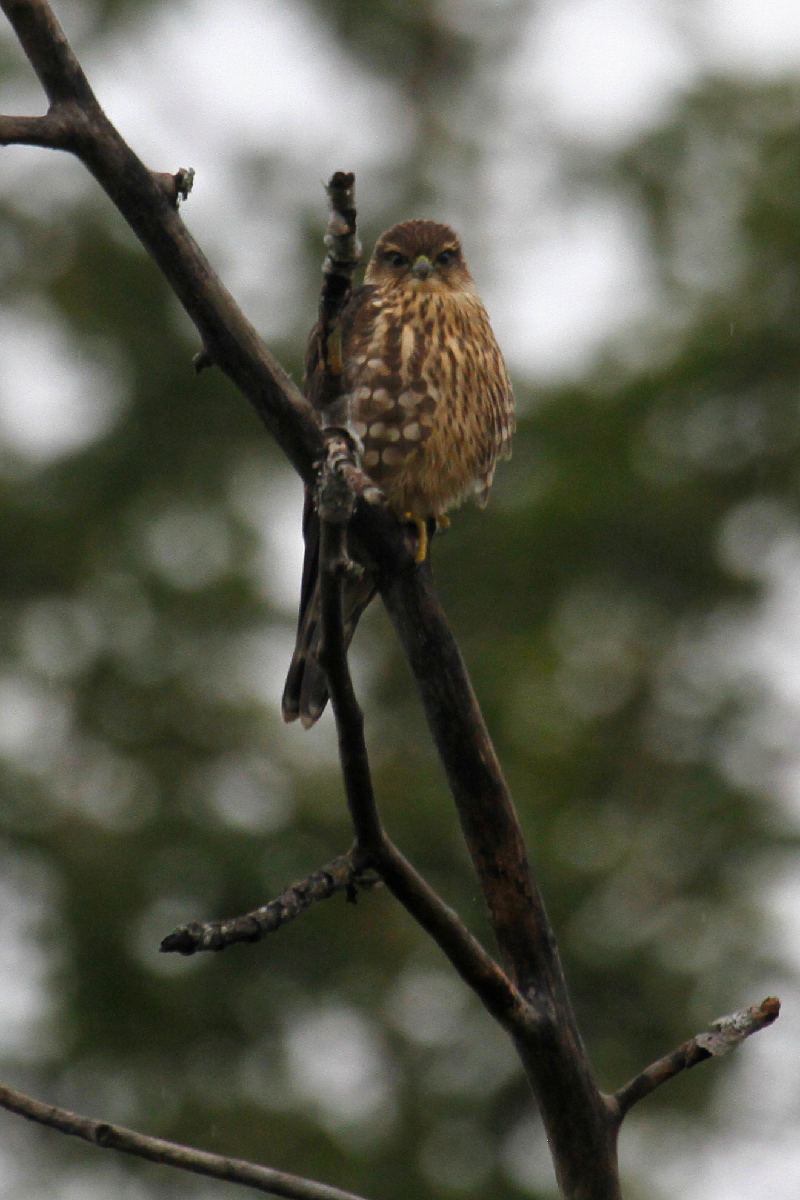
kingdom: Animalia
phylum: Chordata
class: Aves
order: Falconiformes
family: Falconidae
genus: Falco
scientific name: Falco columbarius
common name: Merlin
